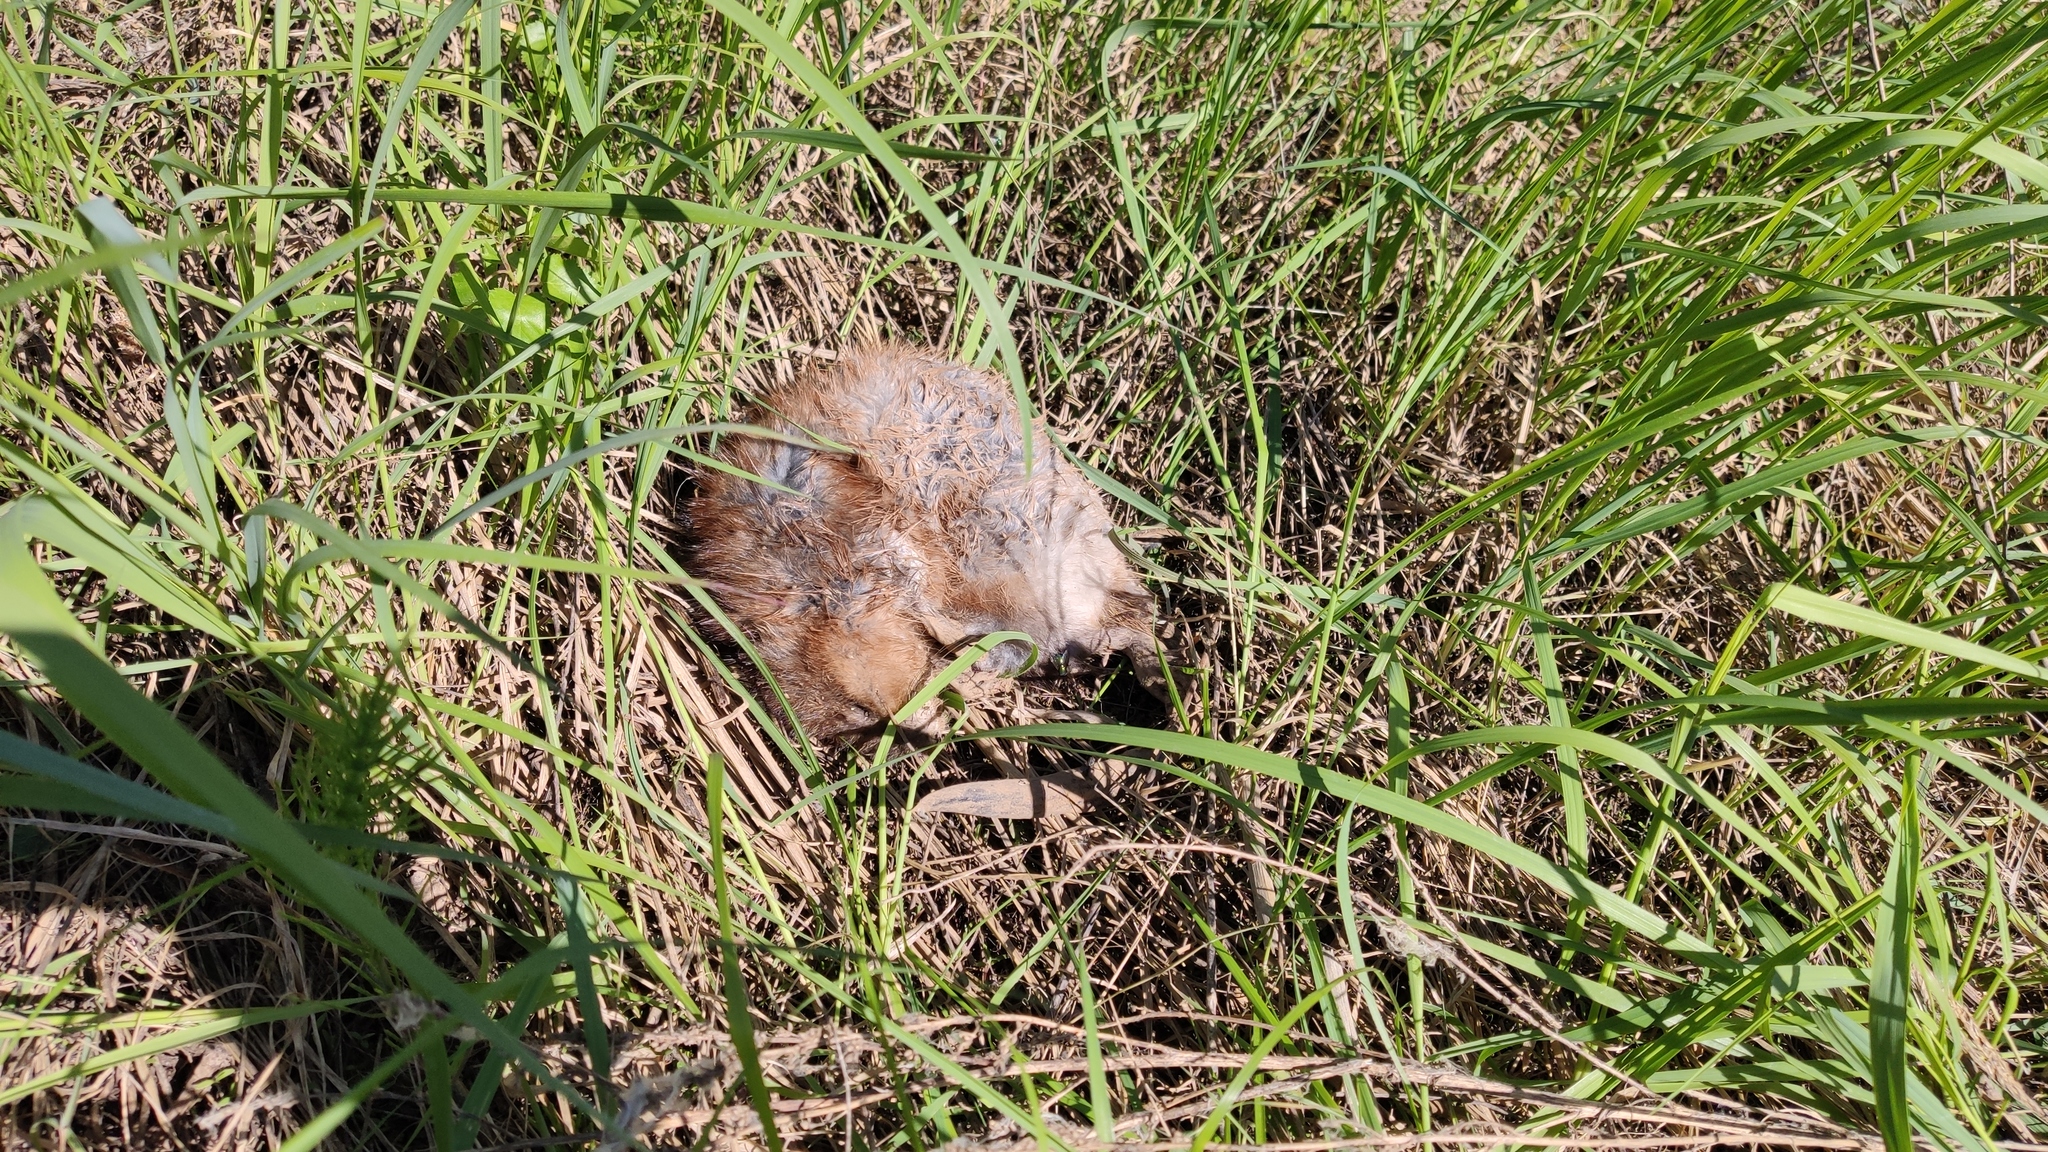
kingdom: Animalia
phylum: Chordata
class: Mammalia
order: Rodentia
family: Cricetidae
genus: Ondatra
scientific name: Ondatra zibethicus
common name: Muskrat
